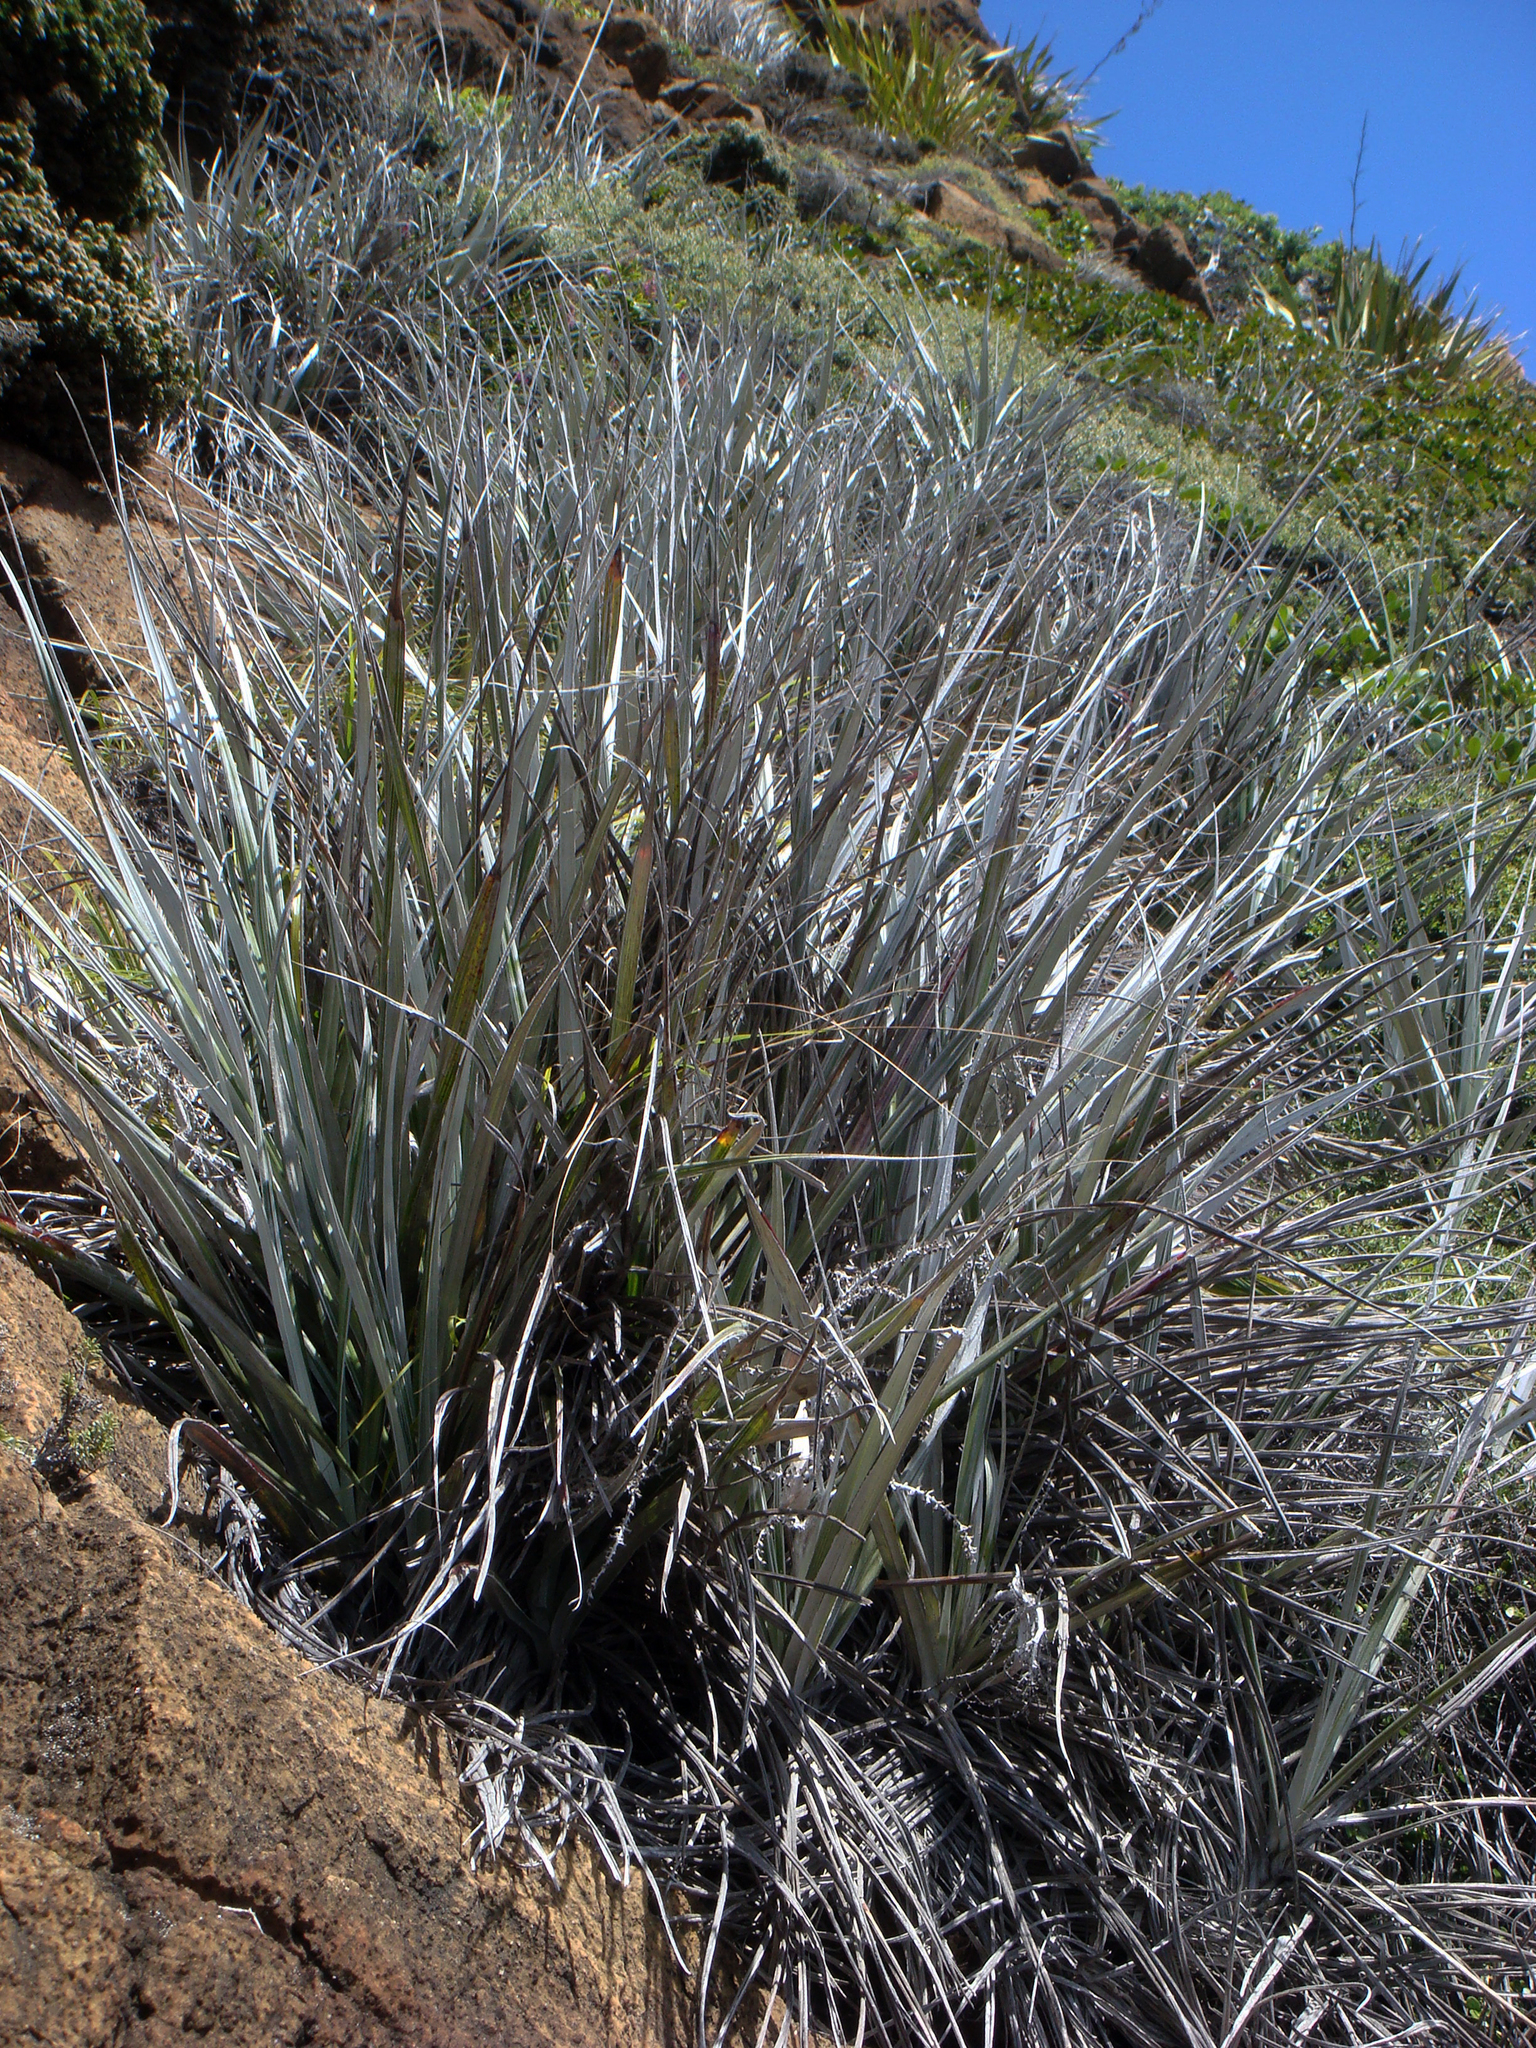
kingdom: Plantae
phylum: Tracheophyta
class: Liliopsida
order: Asparagales
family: Asteliaceae
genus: Astelia
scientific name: Astelia banksii
